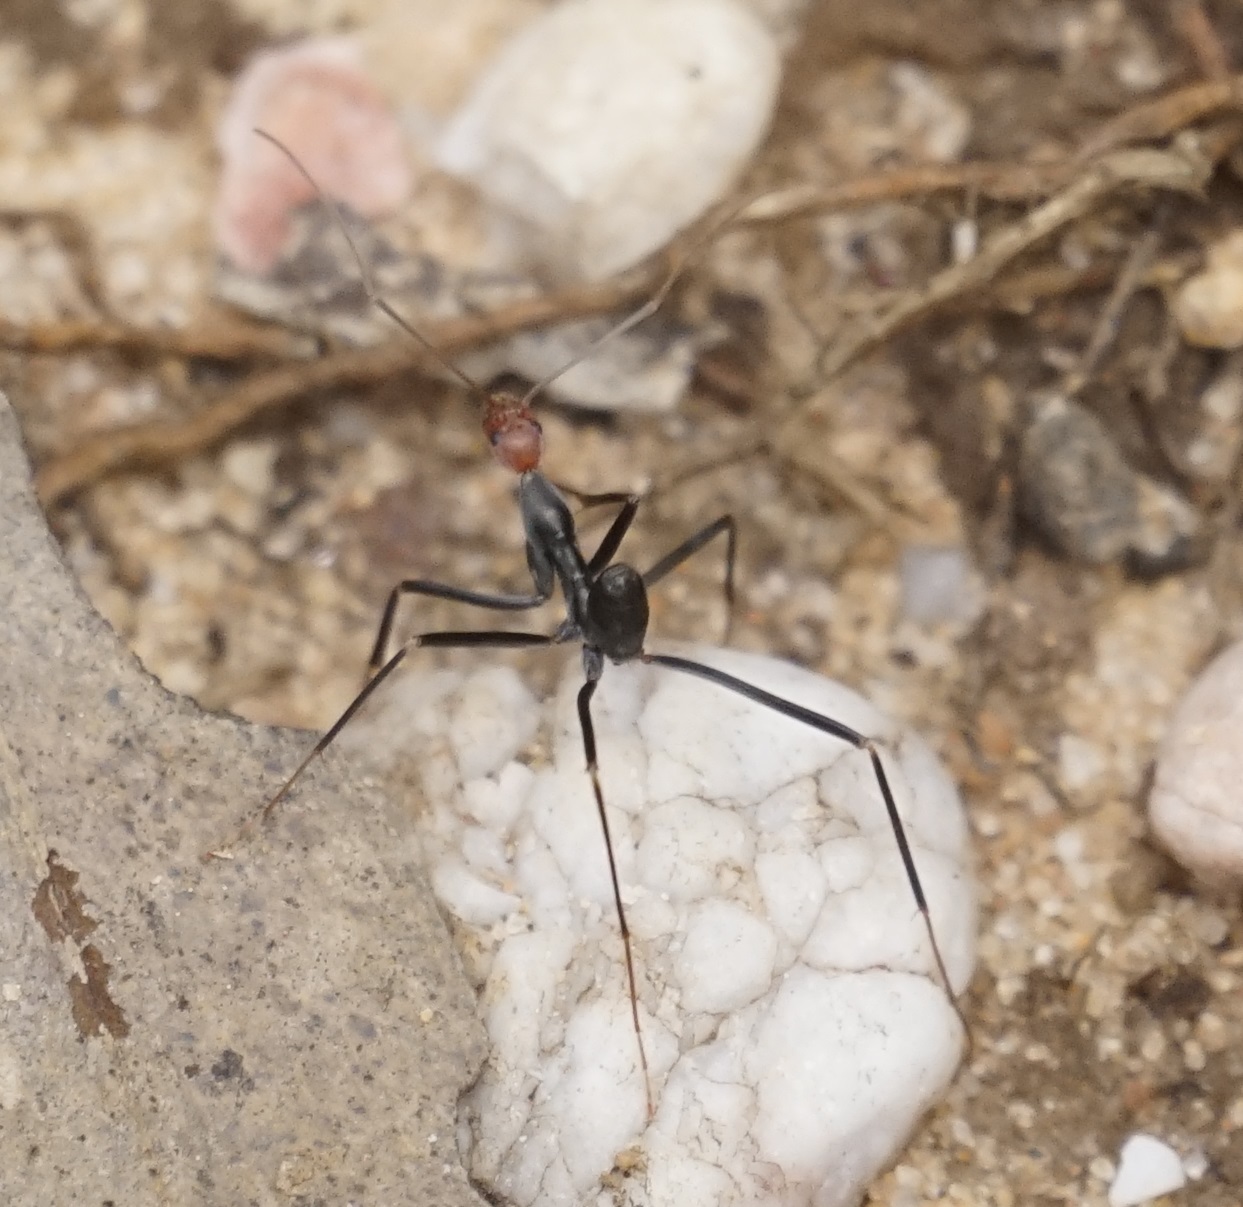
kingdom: Animalia
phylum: Arthropoda
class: Insecta
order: Hymenoptera
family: Formicidae
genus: Leptomyrmex
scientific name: Leptomyrmex erythrocephalus
